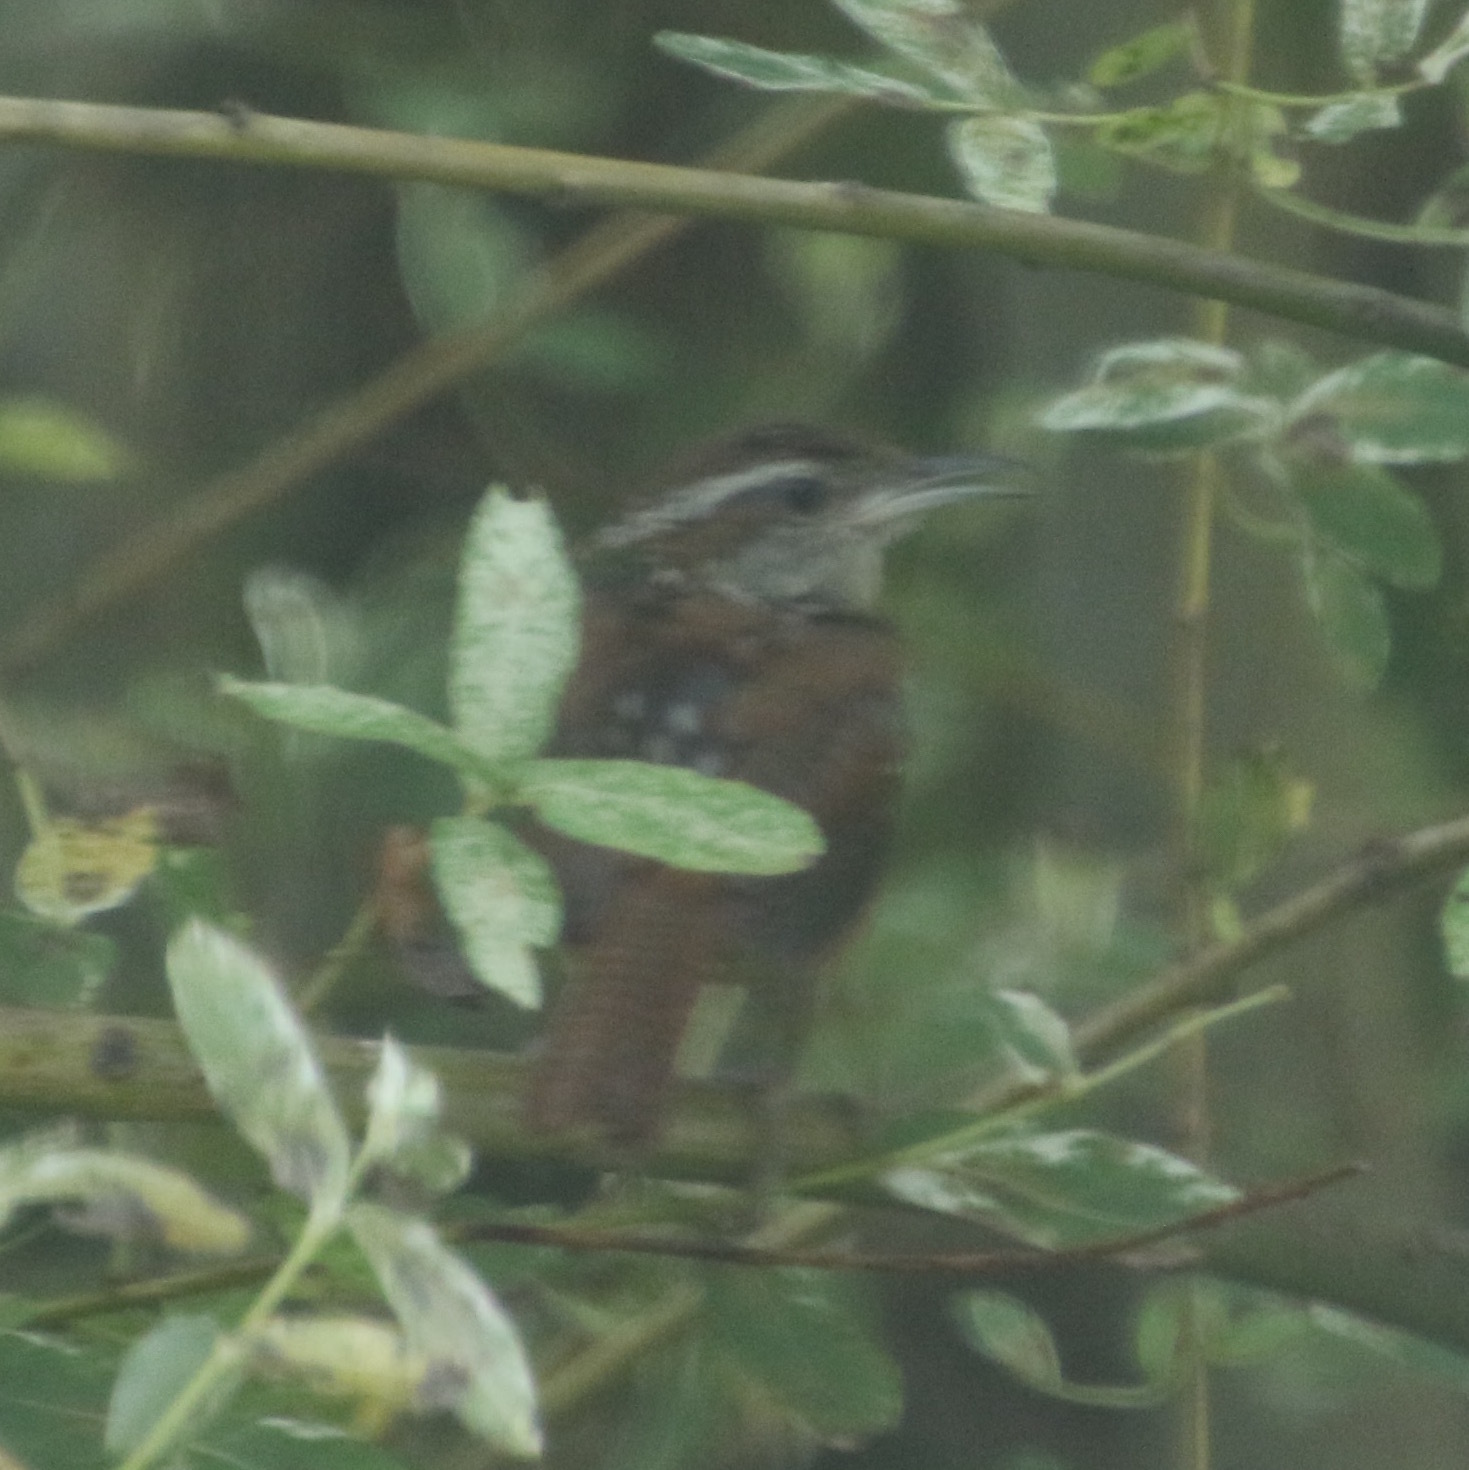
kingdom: Animalia
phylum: Chordata
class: Aves
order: Passeriformes
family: Troglodytidae
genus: Thryothorus
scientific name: Thryothorus ludovicianus
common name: Carolina wren
